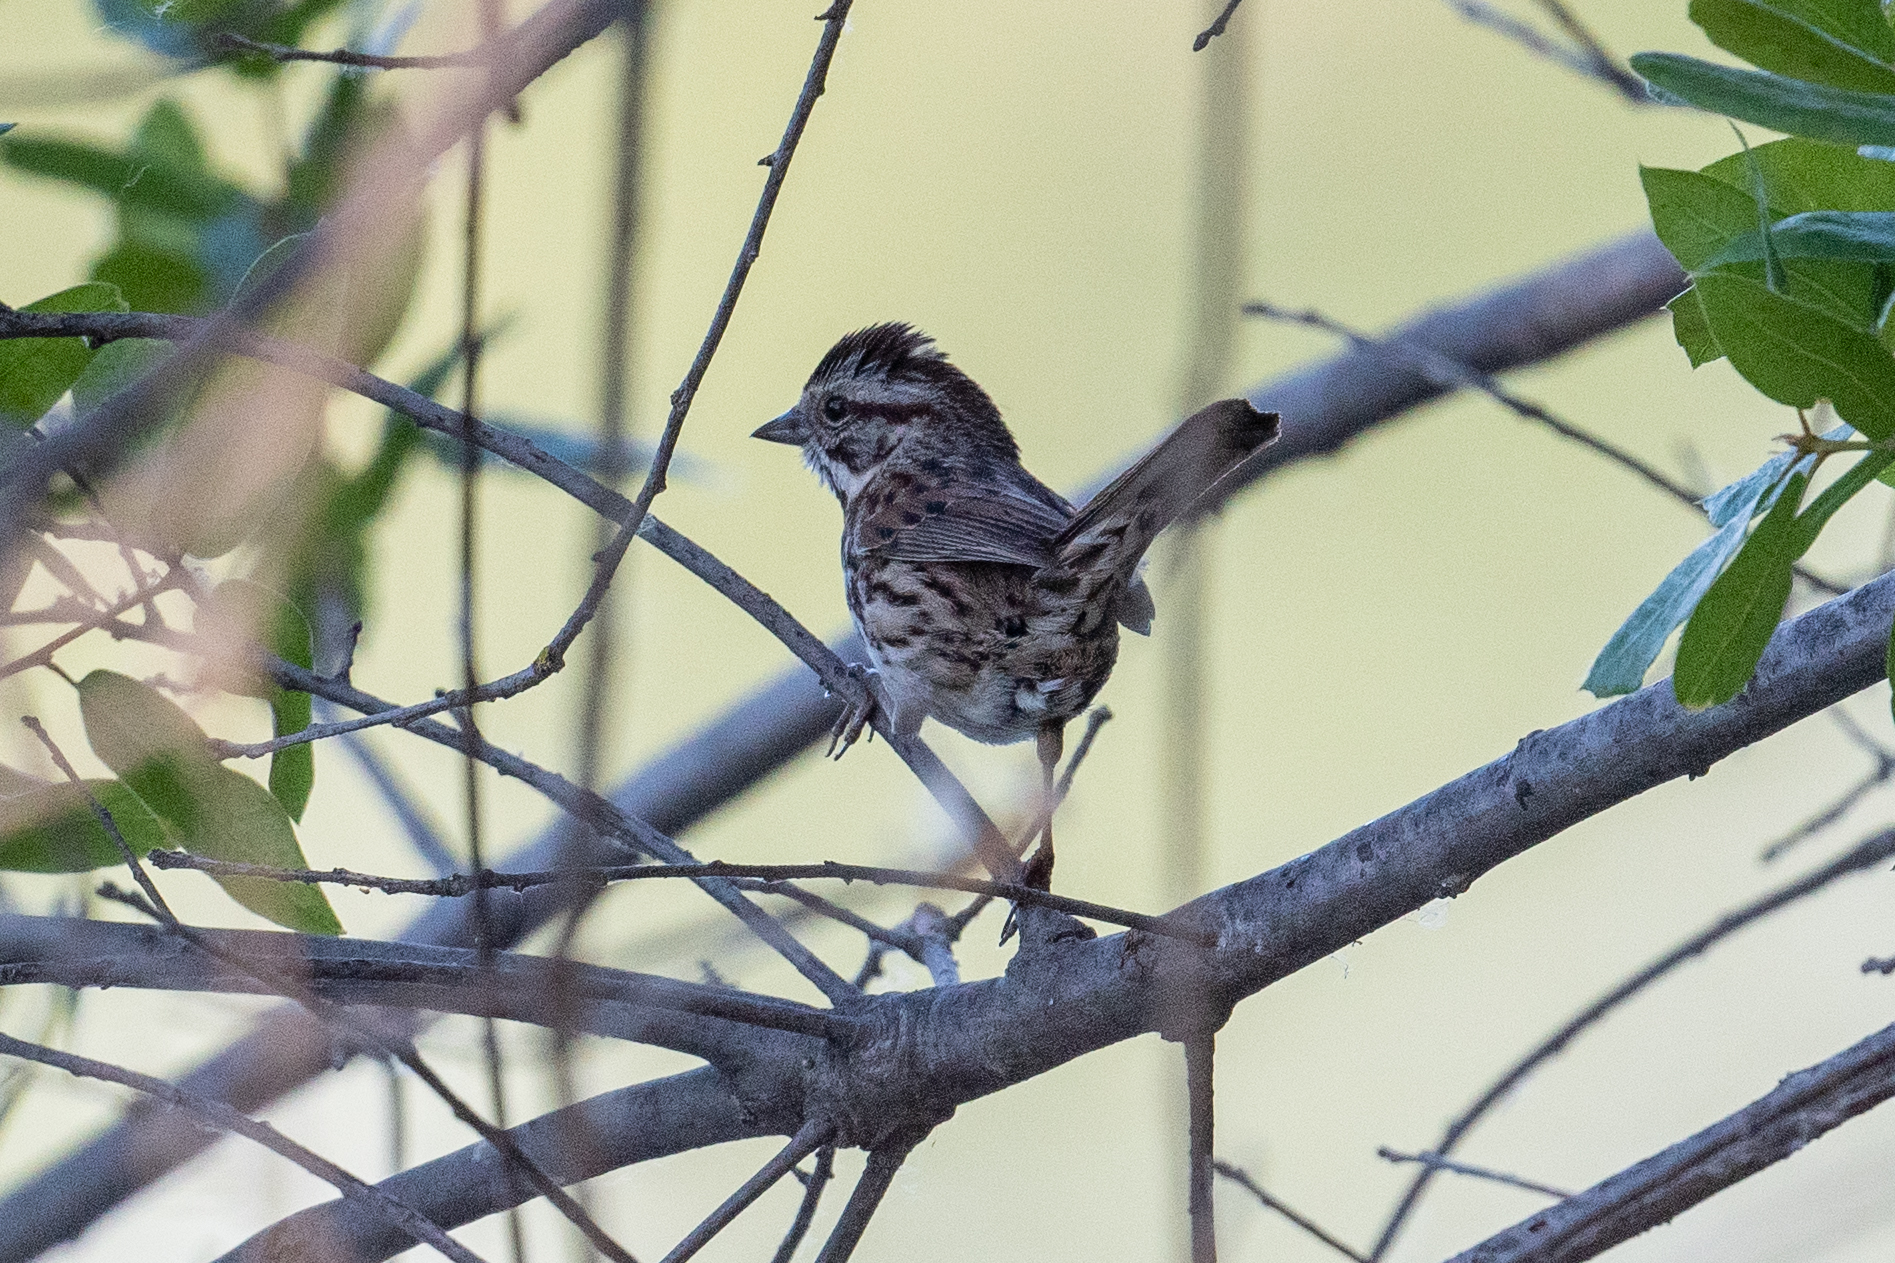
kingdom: Animalia
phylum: Chordata
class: Aves
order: Passeriformes
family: Passerellidae
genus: Melospiza
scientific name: Melospiza lincolnii
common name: Lincoln's sparrow
